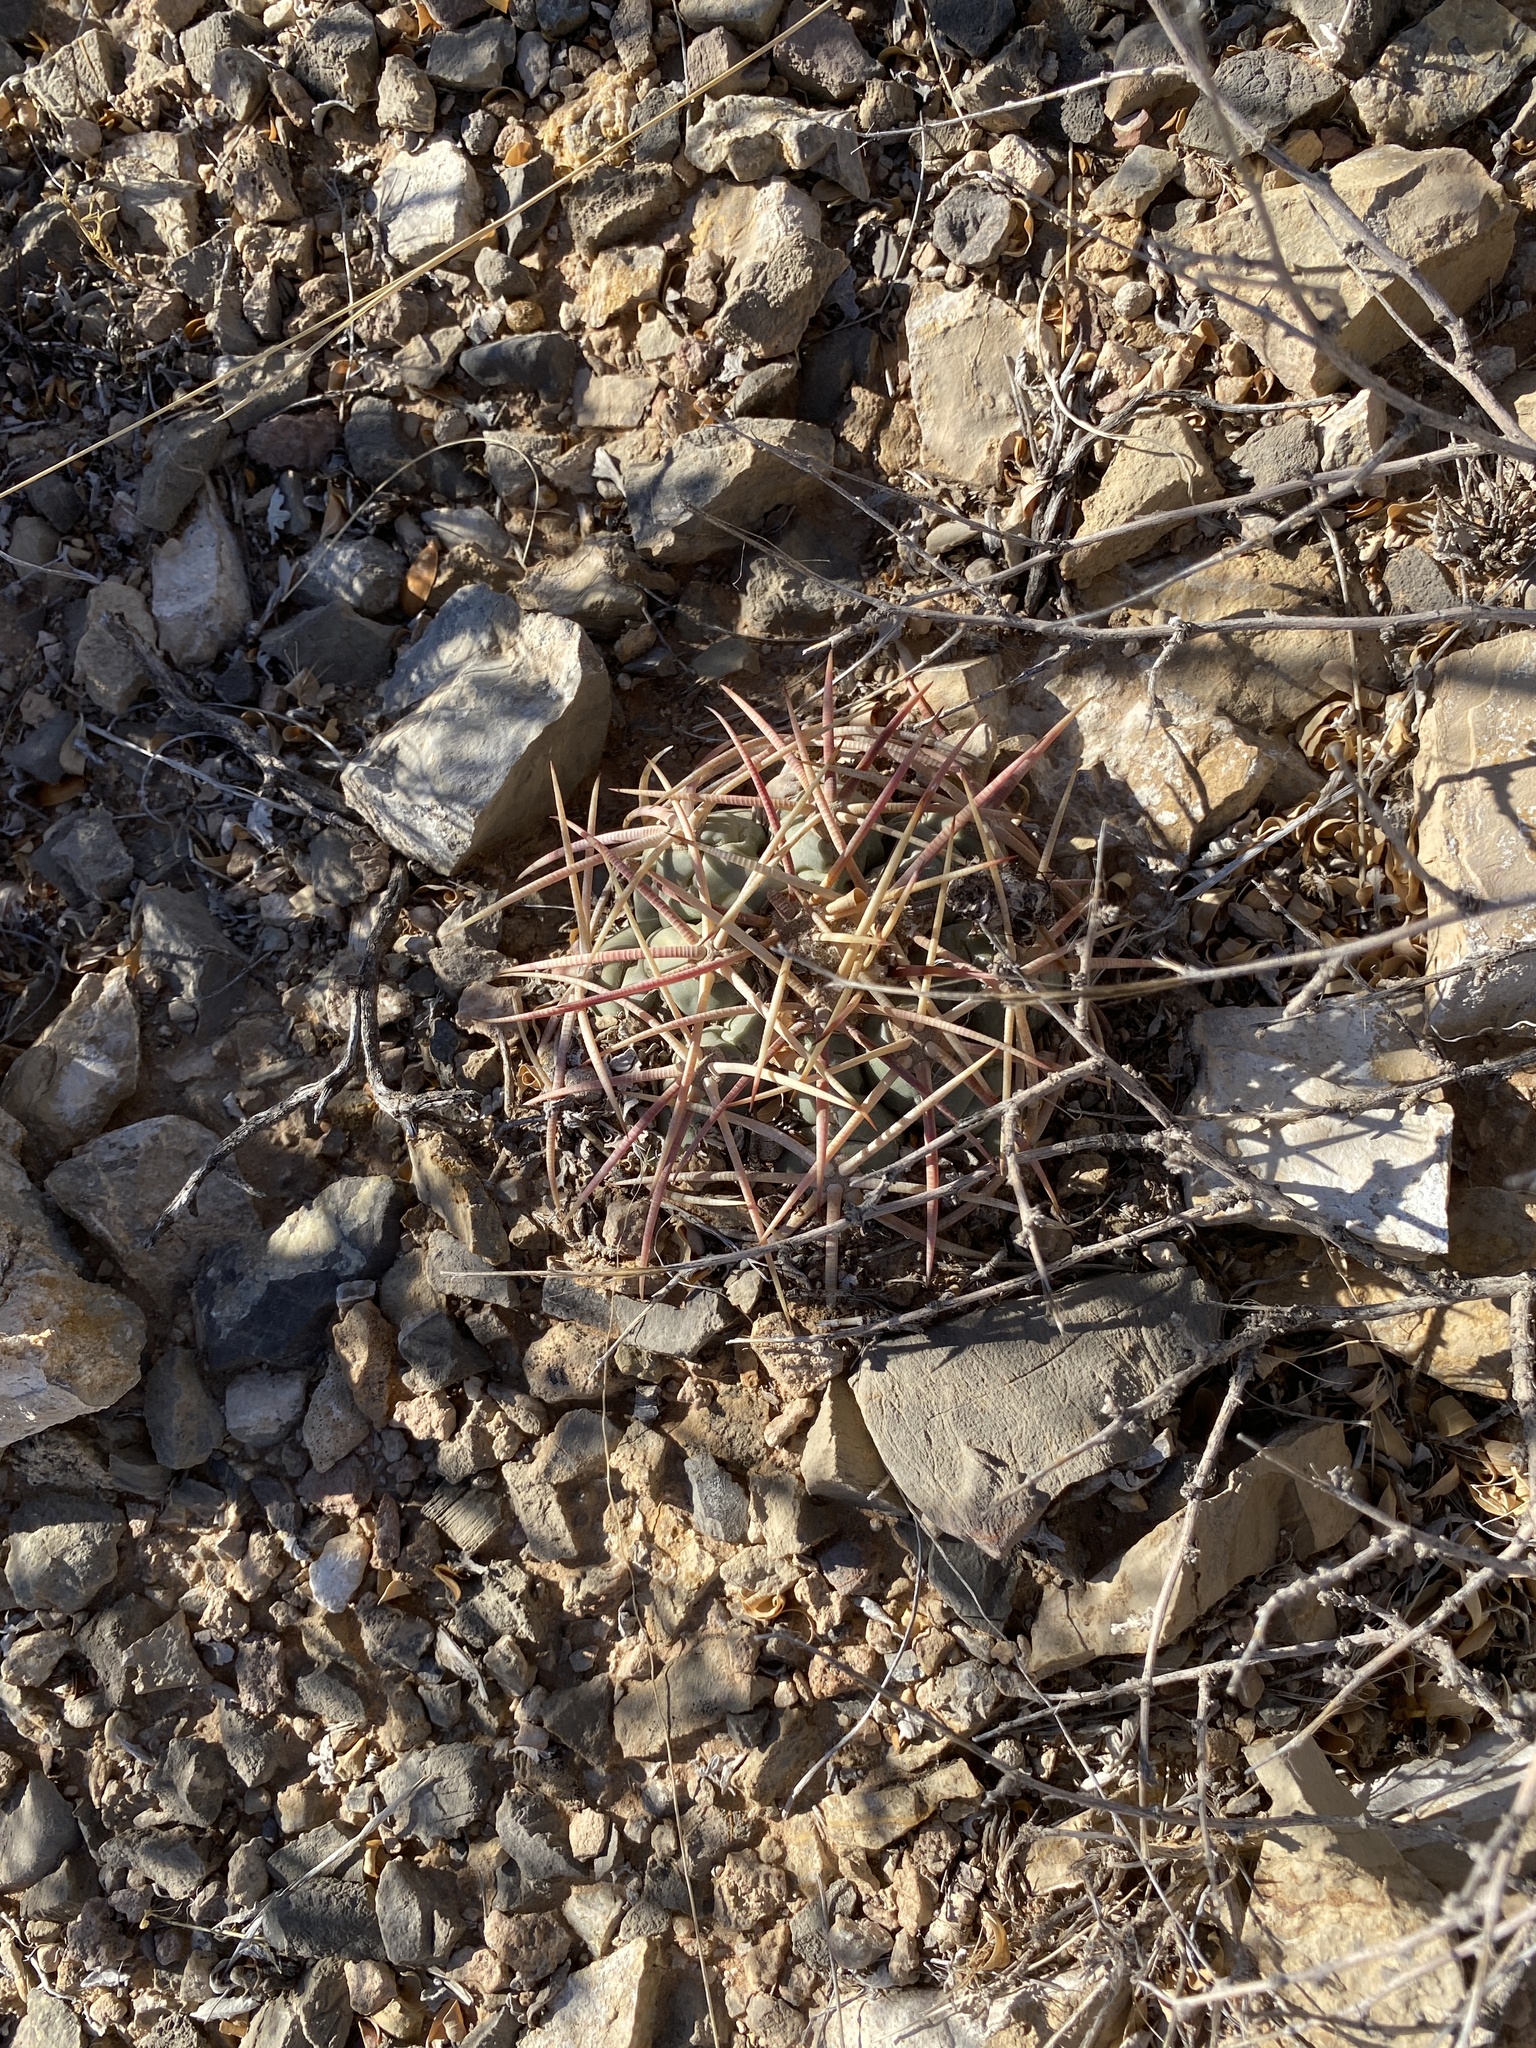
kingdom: Plantae
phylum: Tracheophyta
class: Magnoliopsida
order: Caryophyllales
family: Cactaceae
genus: Echinocactus
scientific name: Echinocactus horizonthalonius
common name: Devilshead
